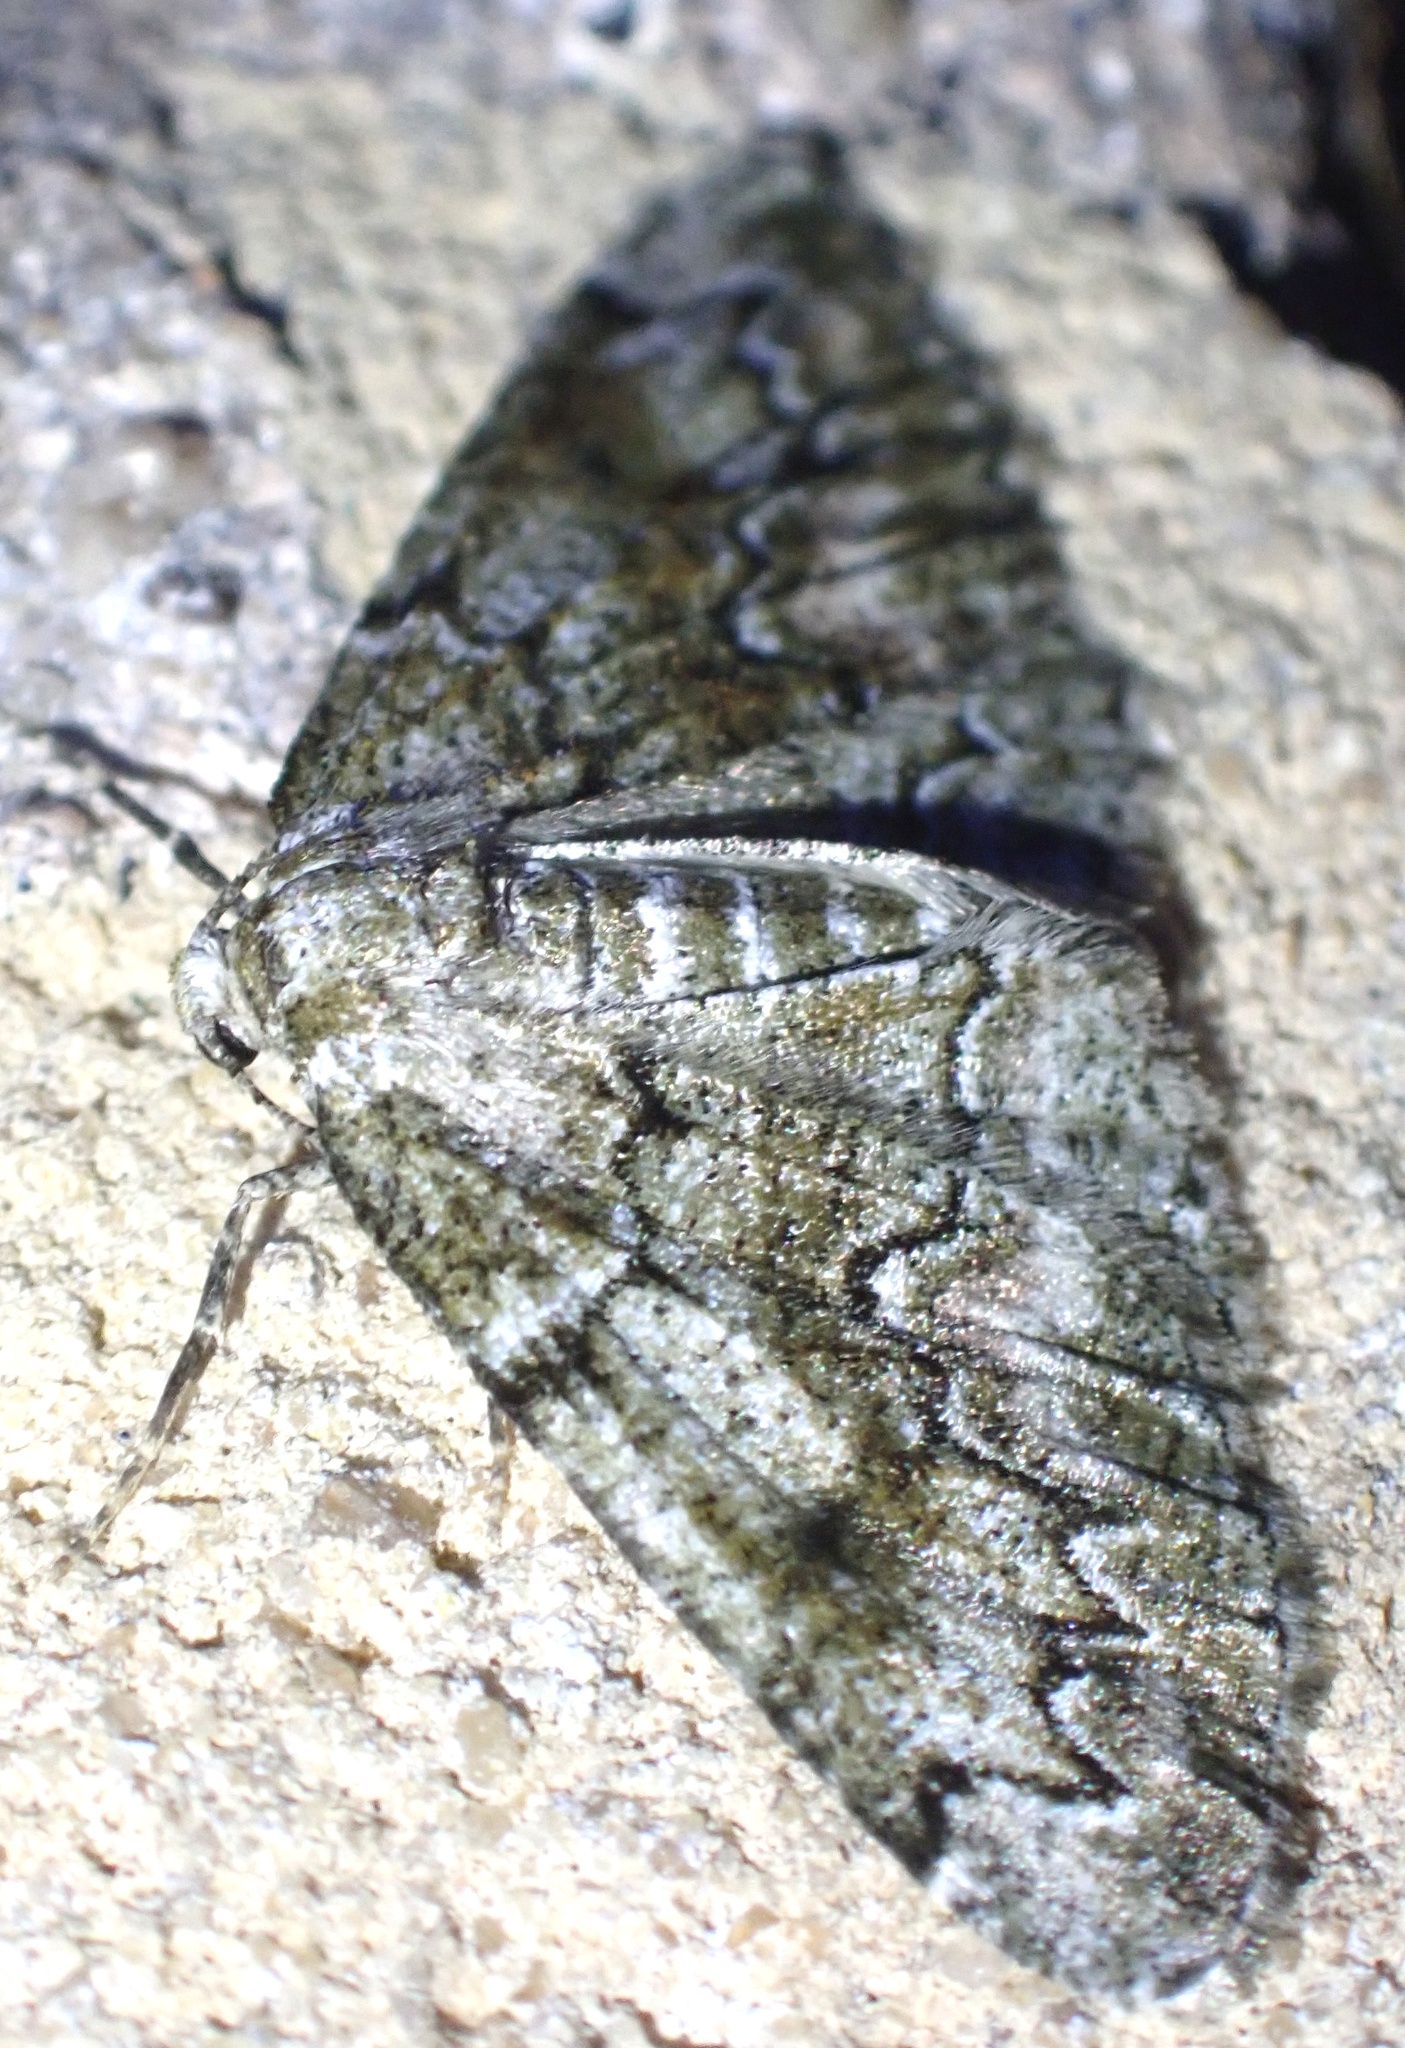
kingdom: Animalia
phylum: Arthropoda
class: Insecta
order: Lepidoptera
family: Geometridae
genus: Cleorodes
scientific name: Cleorodes lichenaria
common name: Brussels lace
